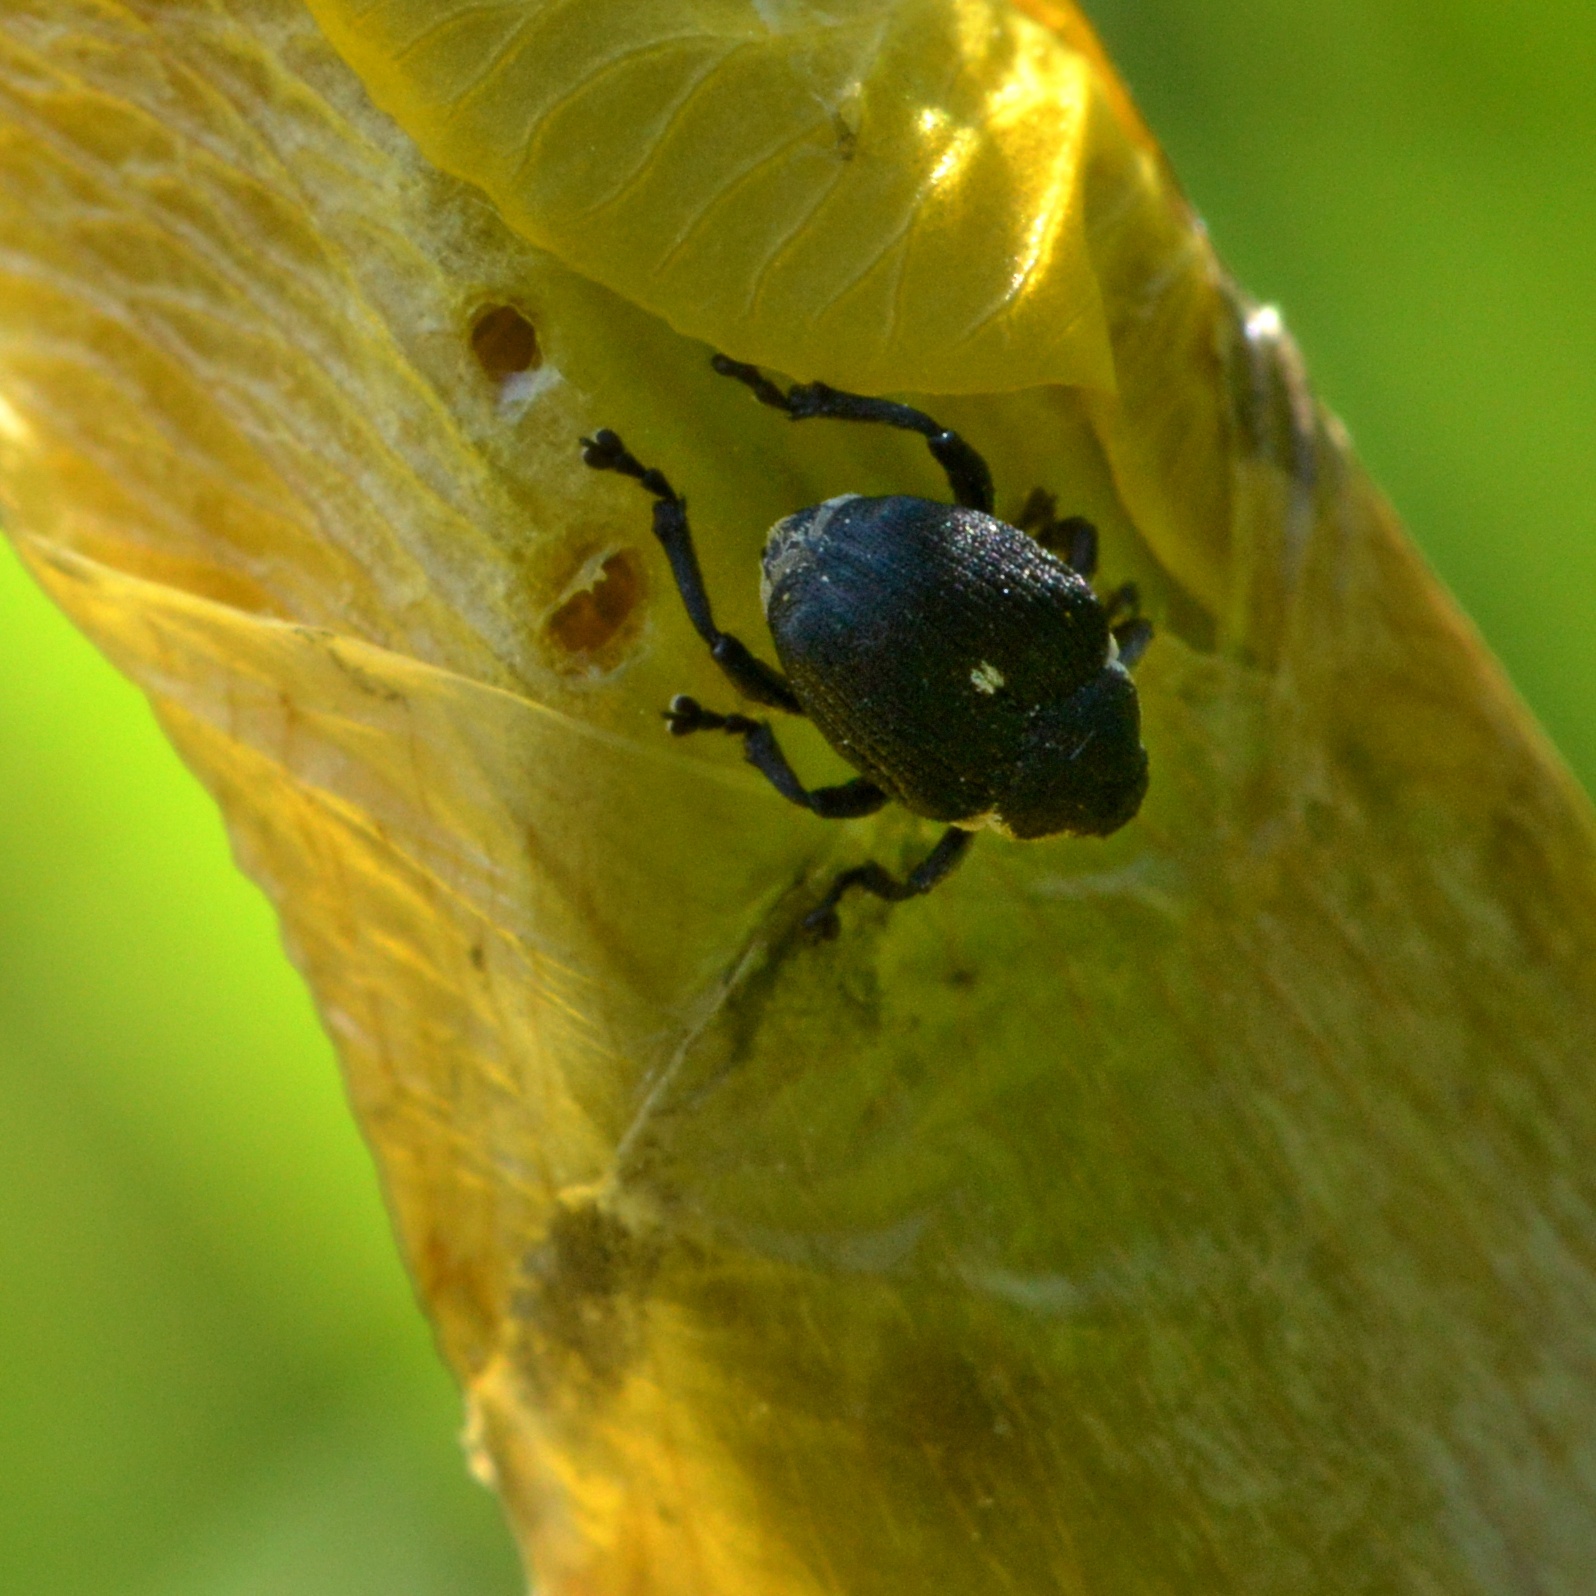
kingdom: Animalia
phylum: Arthropoda
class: Insecta
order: Coleoptera
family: Curculionidae
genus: Mononychus
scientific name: Mononychus punctumalbum
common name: Iris weevil
